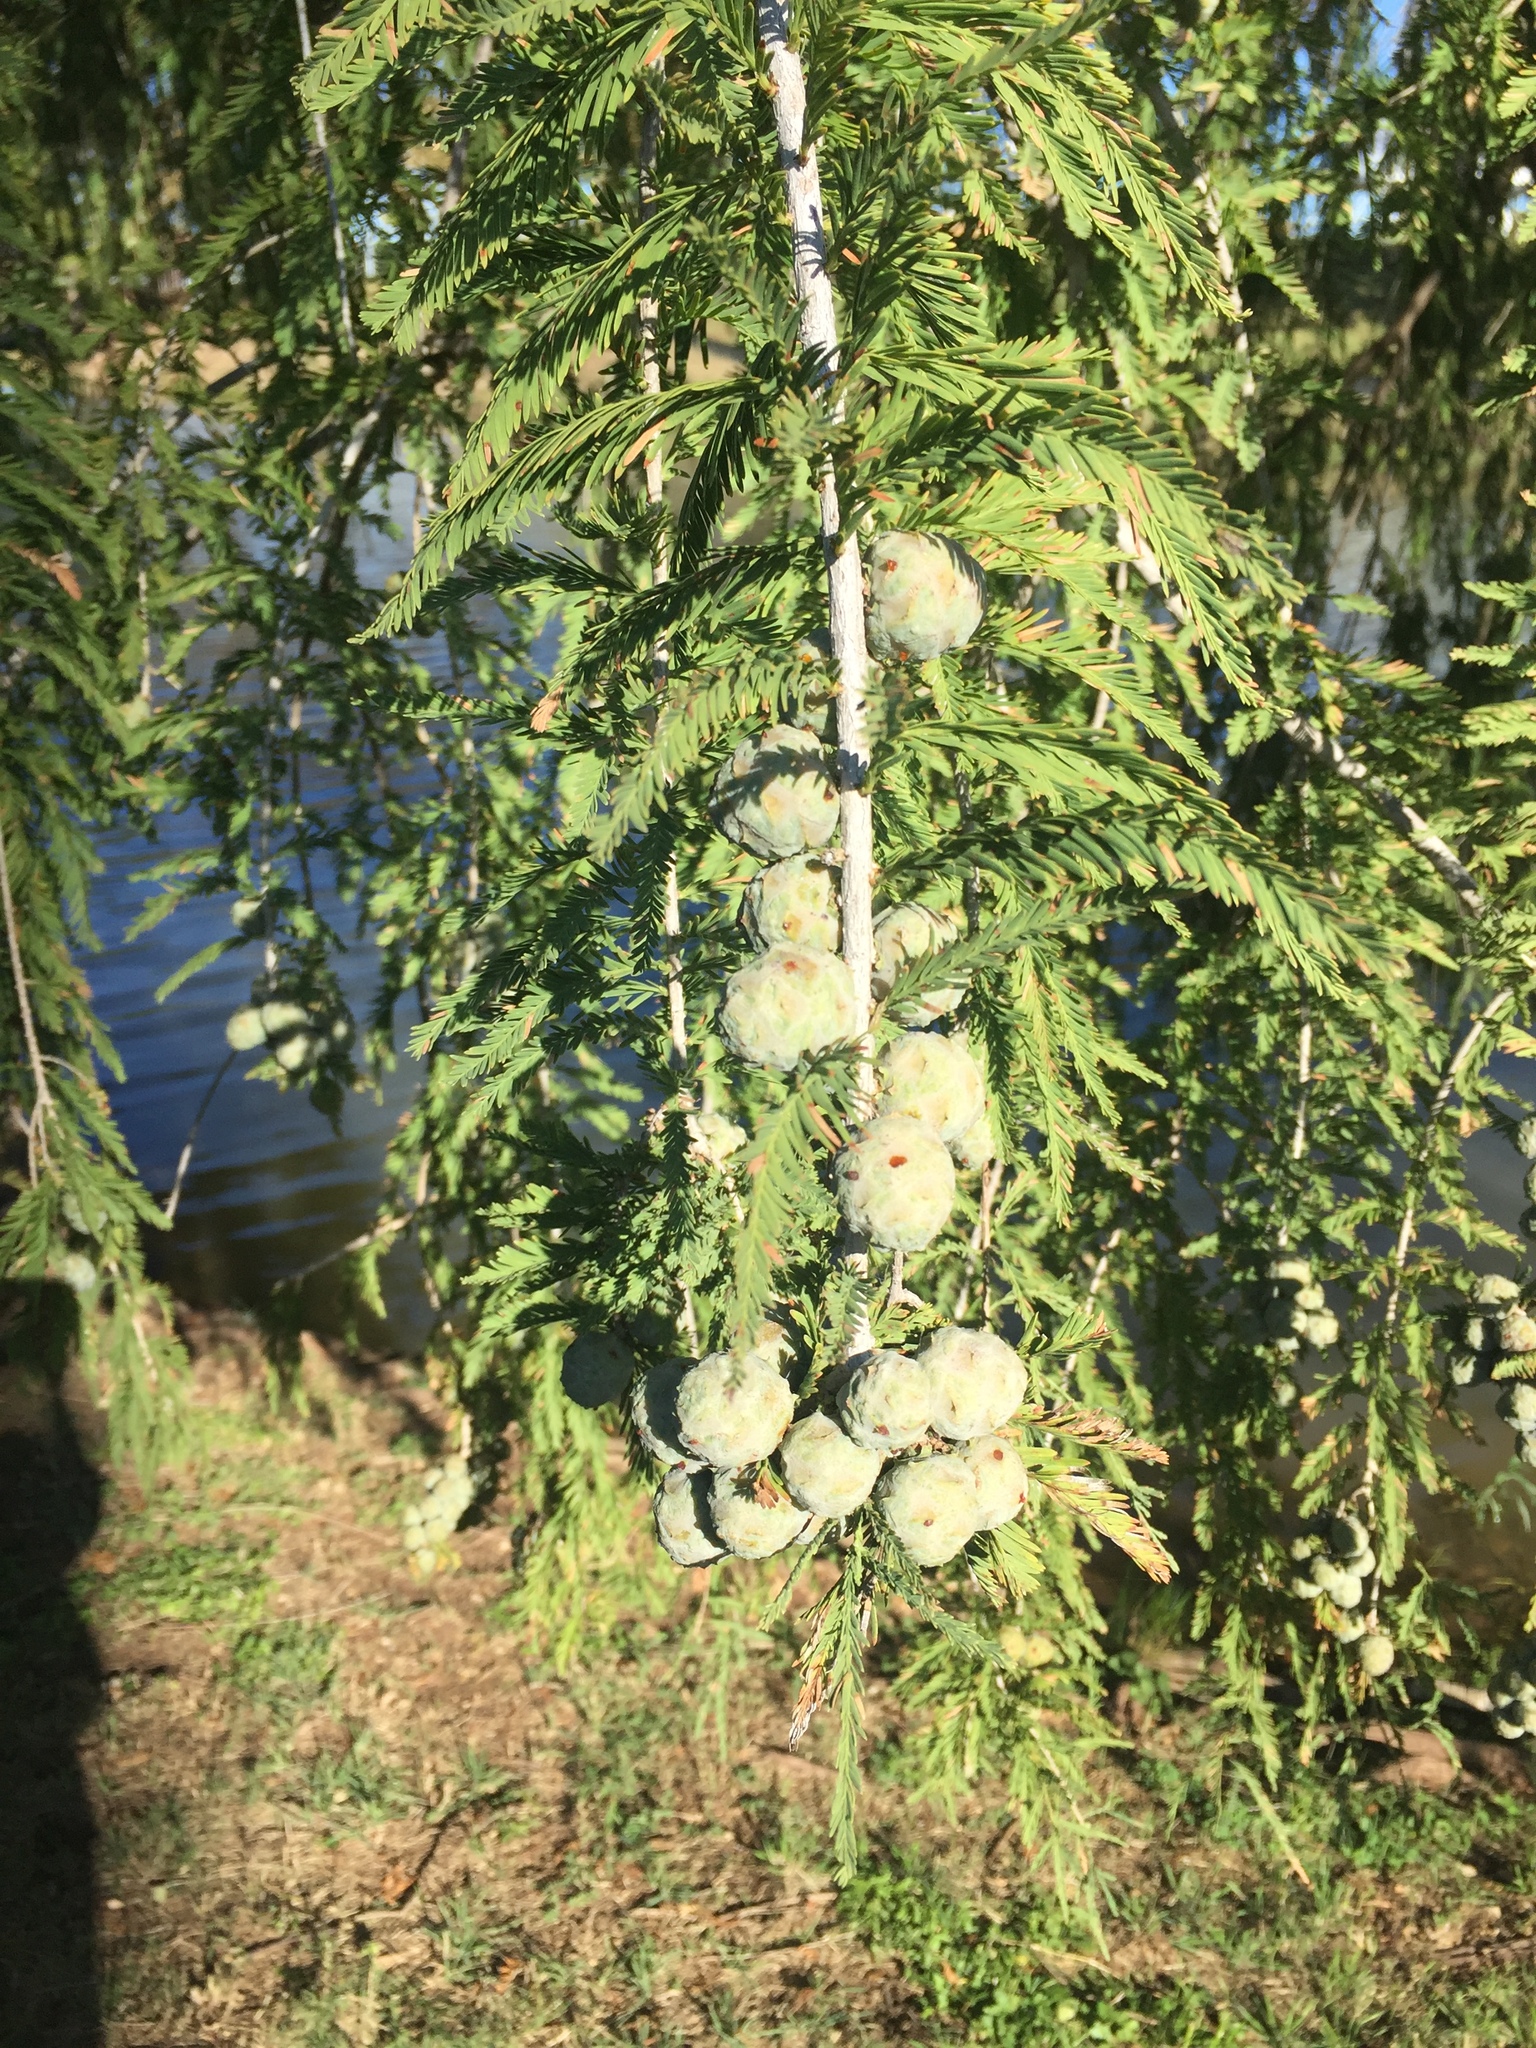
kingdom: Plantae
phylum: Tracheophyta
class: Pinopsida
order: Pinales
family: Cupressaceae
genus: Taxodium
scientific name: Taxodium distichum
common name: Bald cypress
